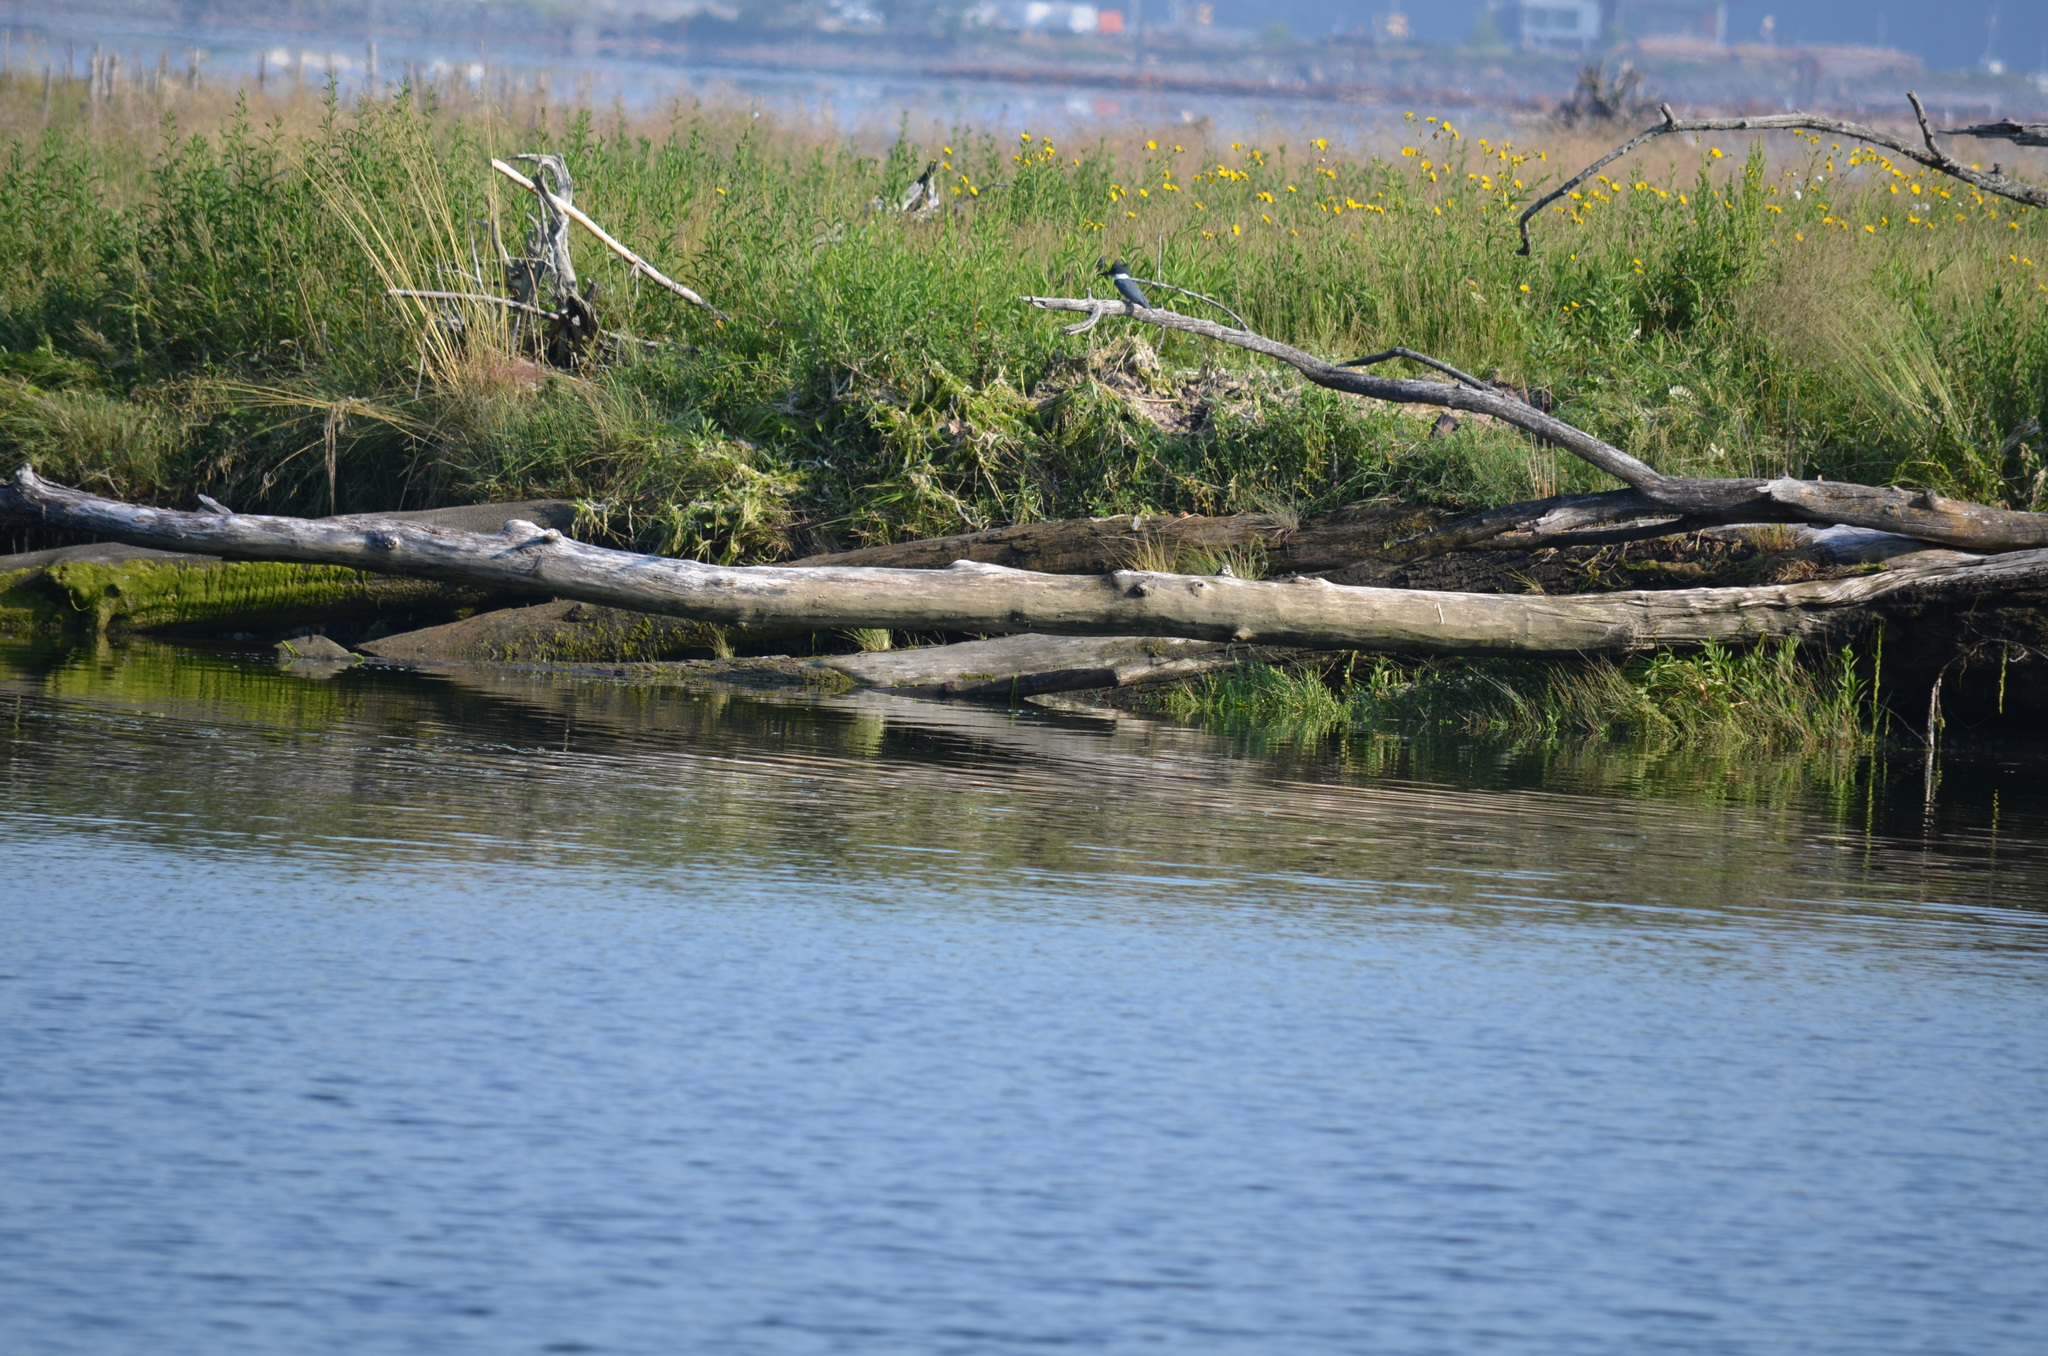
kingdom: Animalia
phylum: Chordata
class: Aves
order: Coraciiformes
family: Alcedinidae
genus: Megaceryle
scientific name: Megaceryle alcyon
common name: Belted kingfisher
